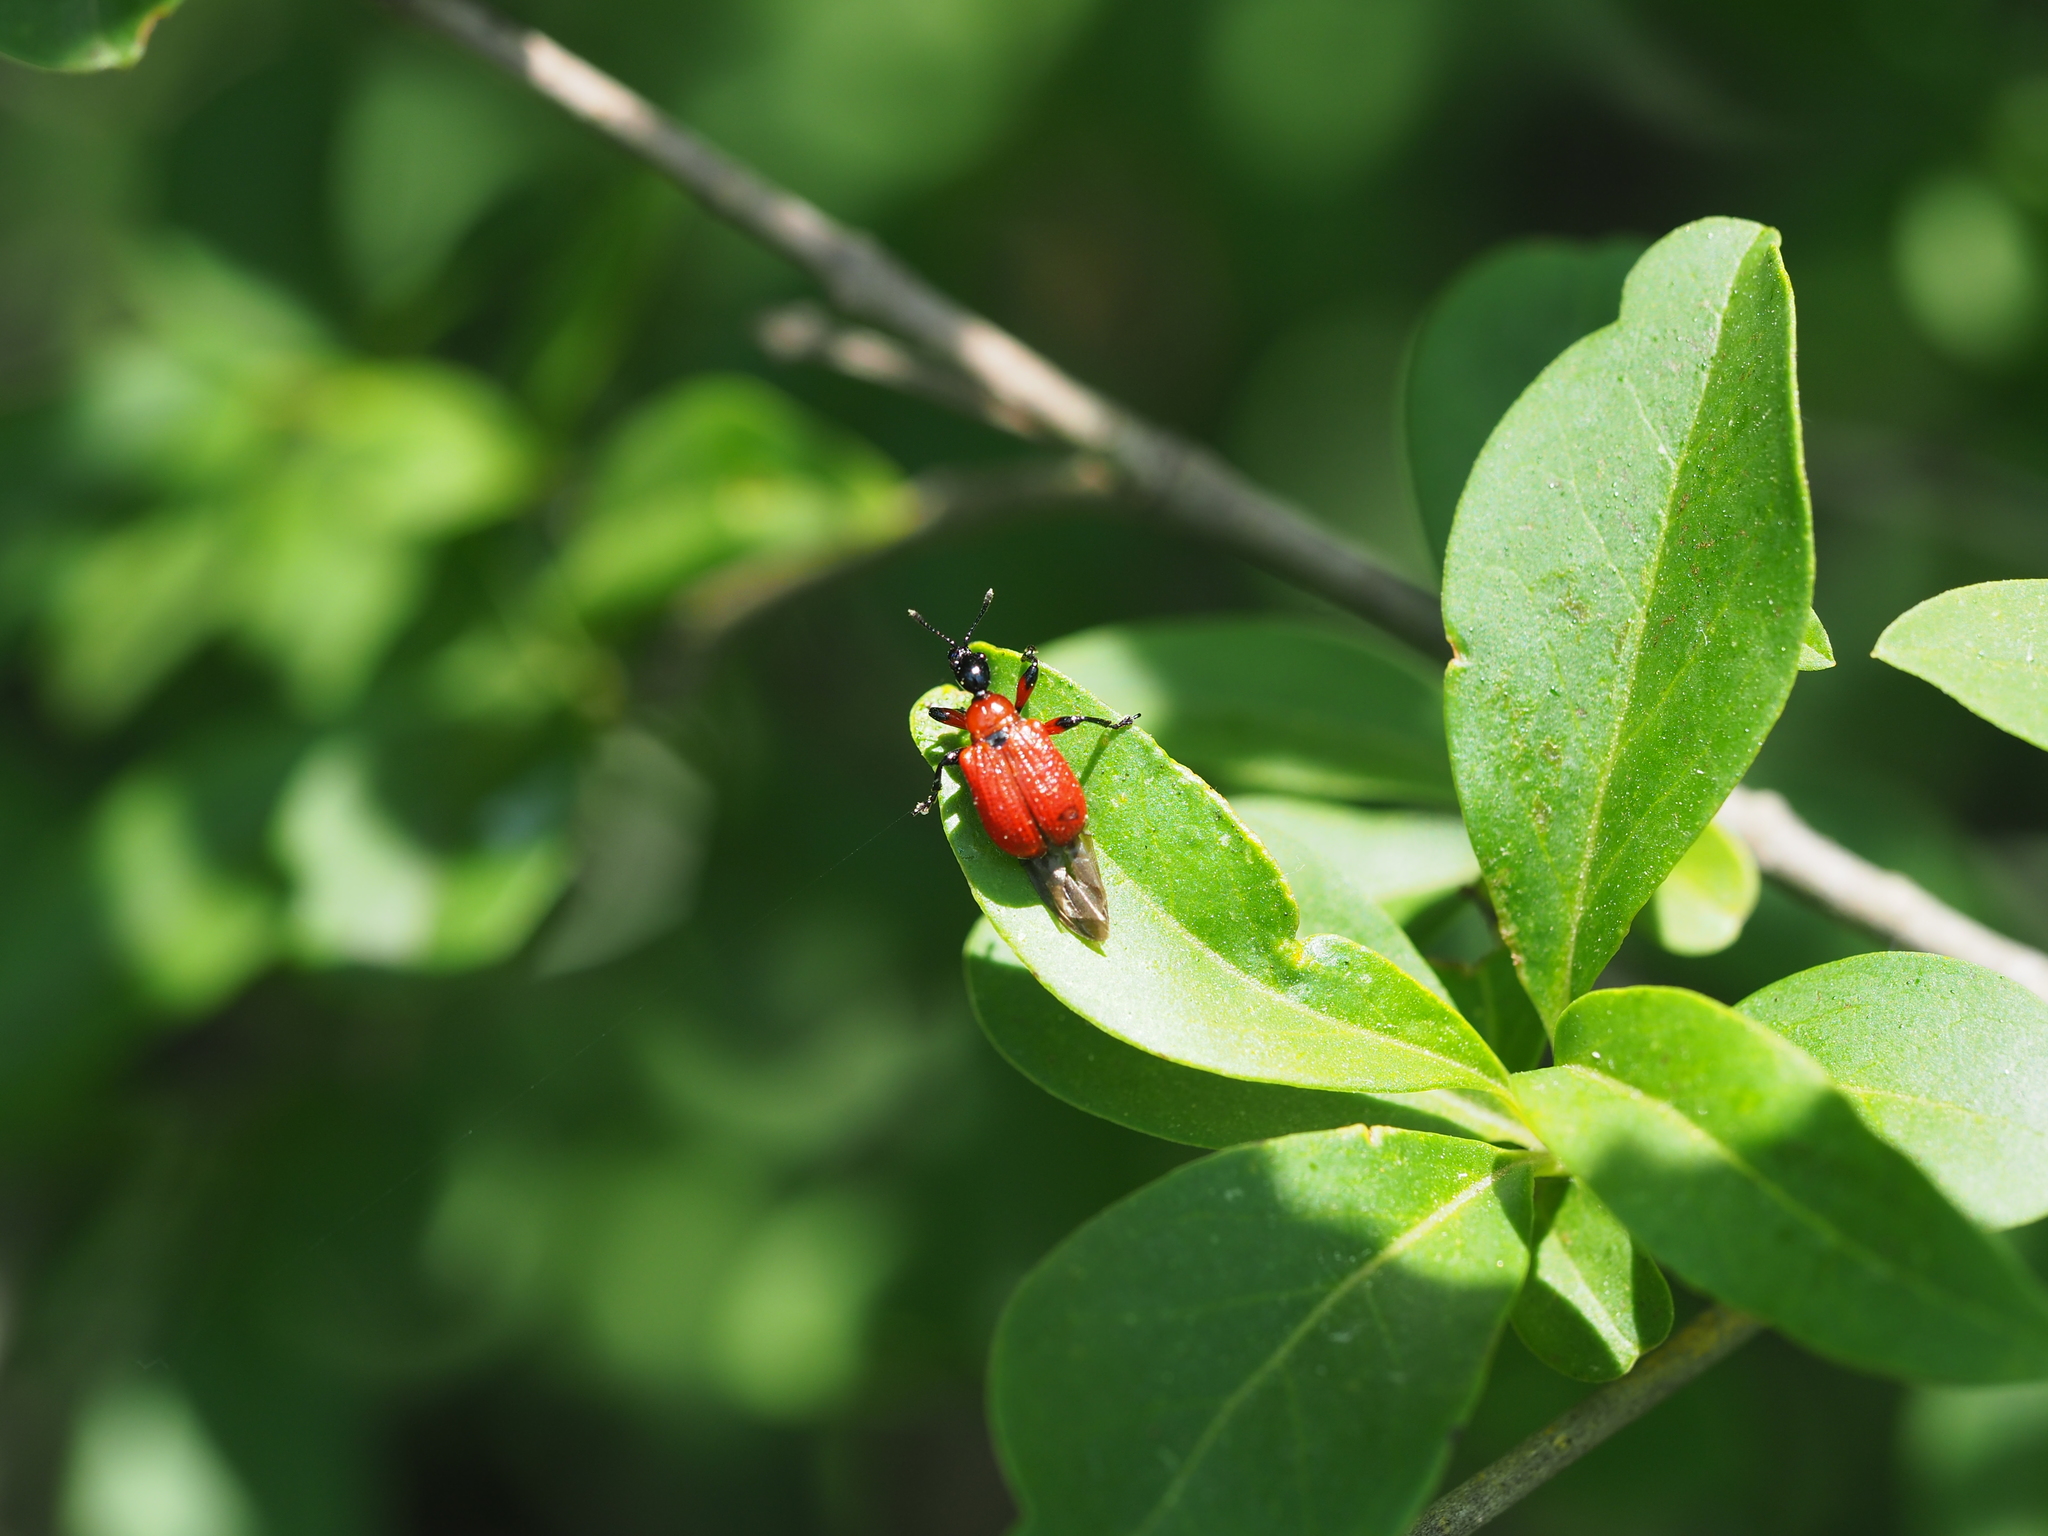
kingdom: Animalia
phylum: Arthropoda
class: Insecta
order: Coleoptera
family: Attelabidae
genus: Apoderus
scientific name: Apoderus coryli
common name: Hazel leaf roller
